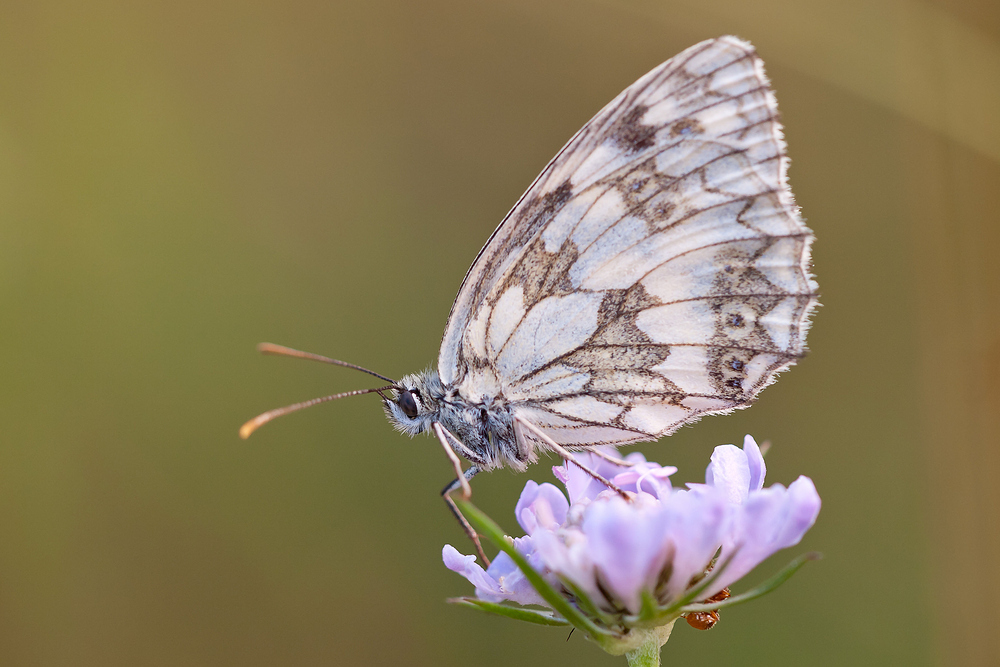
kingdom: Animalia
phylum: Arthropoda
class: Insecta
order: Lepidoptera
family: Nymphalidae
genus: Melanargia
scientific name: Melanargia galathea
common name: Marbled white
